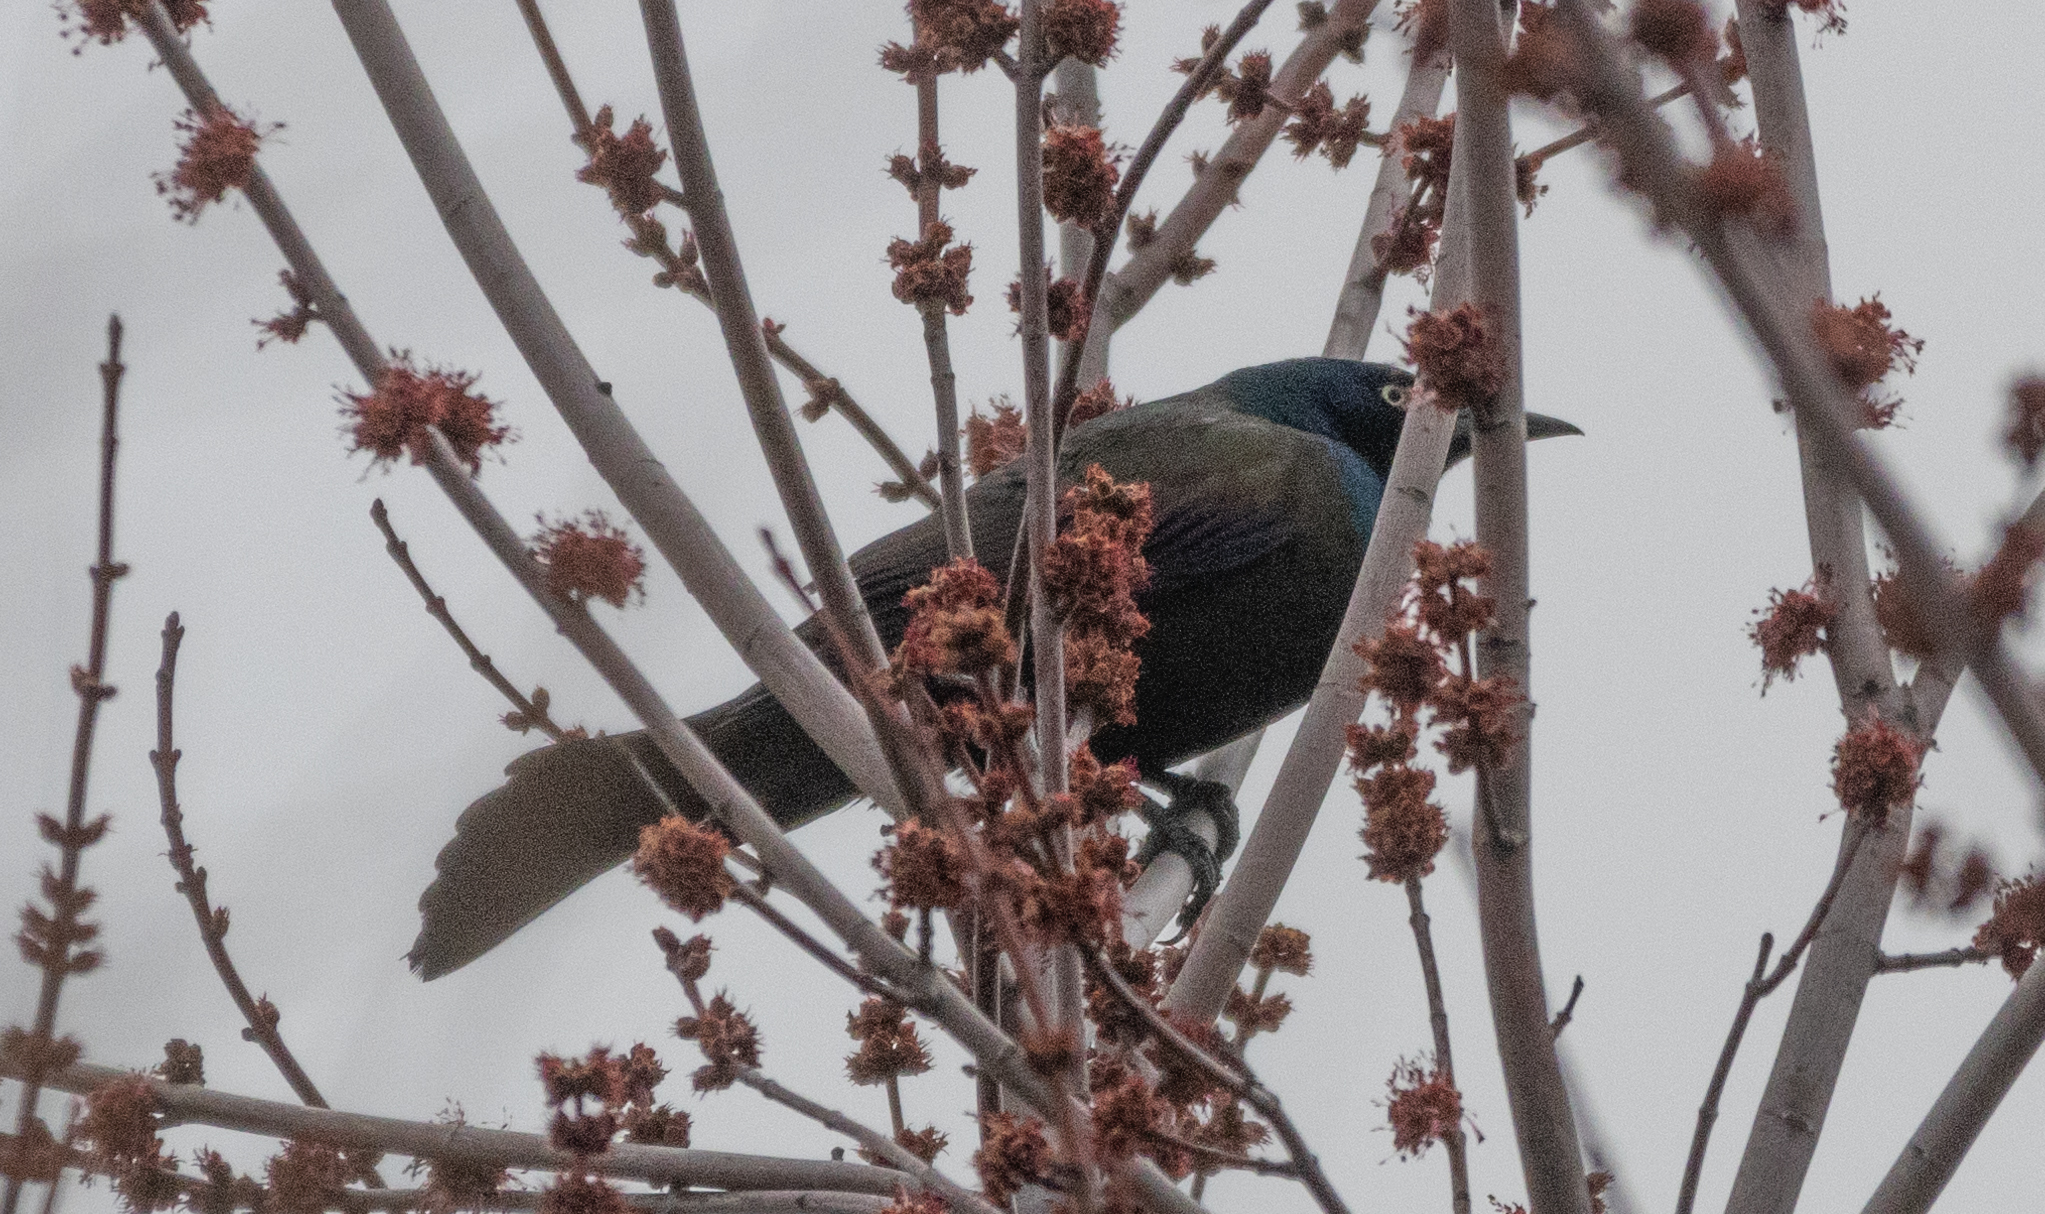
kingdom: Animalia
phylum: Chordata
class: Aves
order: Passeriformes
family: Icteridae
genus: Quiscalus
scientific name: Quiscalus quiscula
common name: Common grackle
